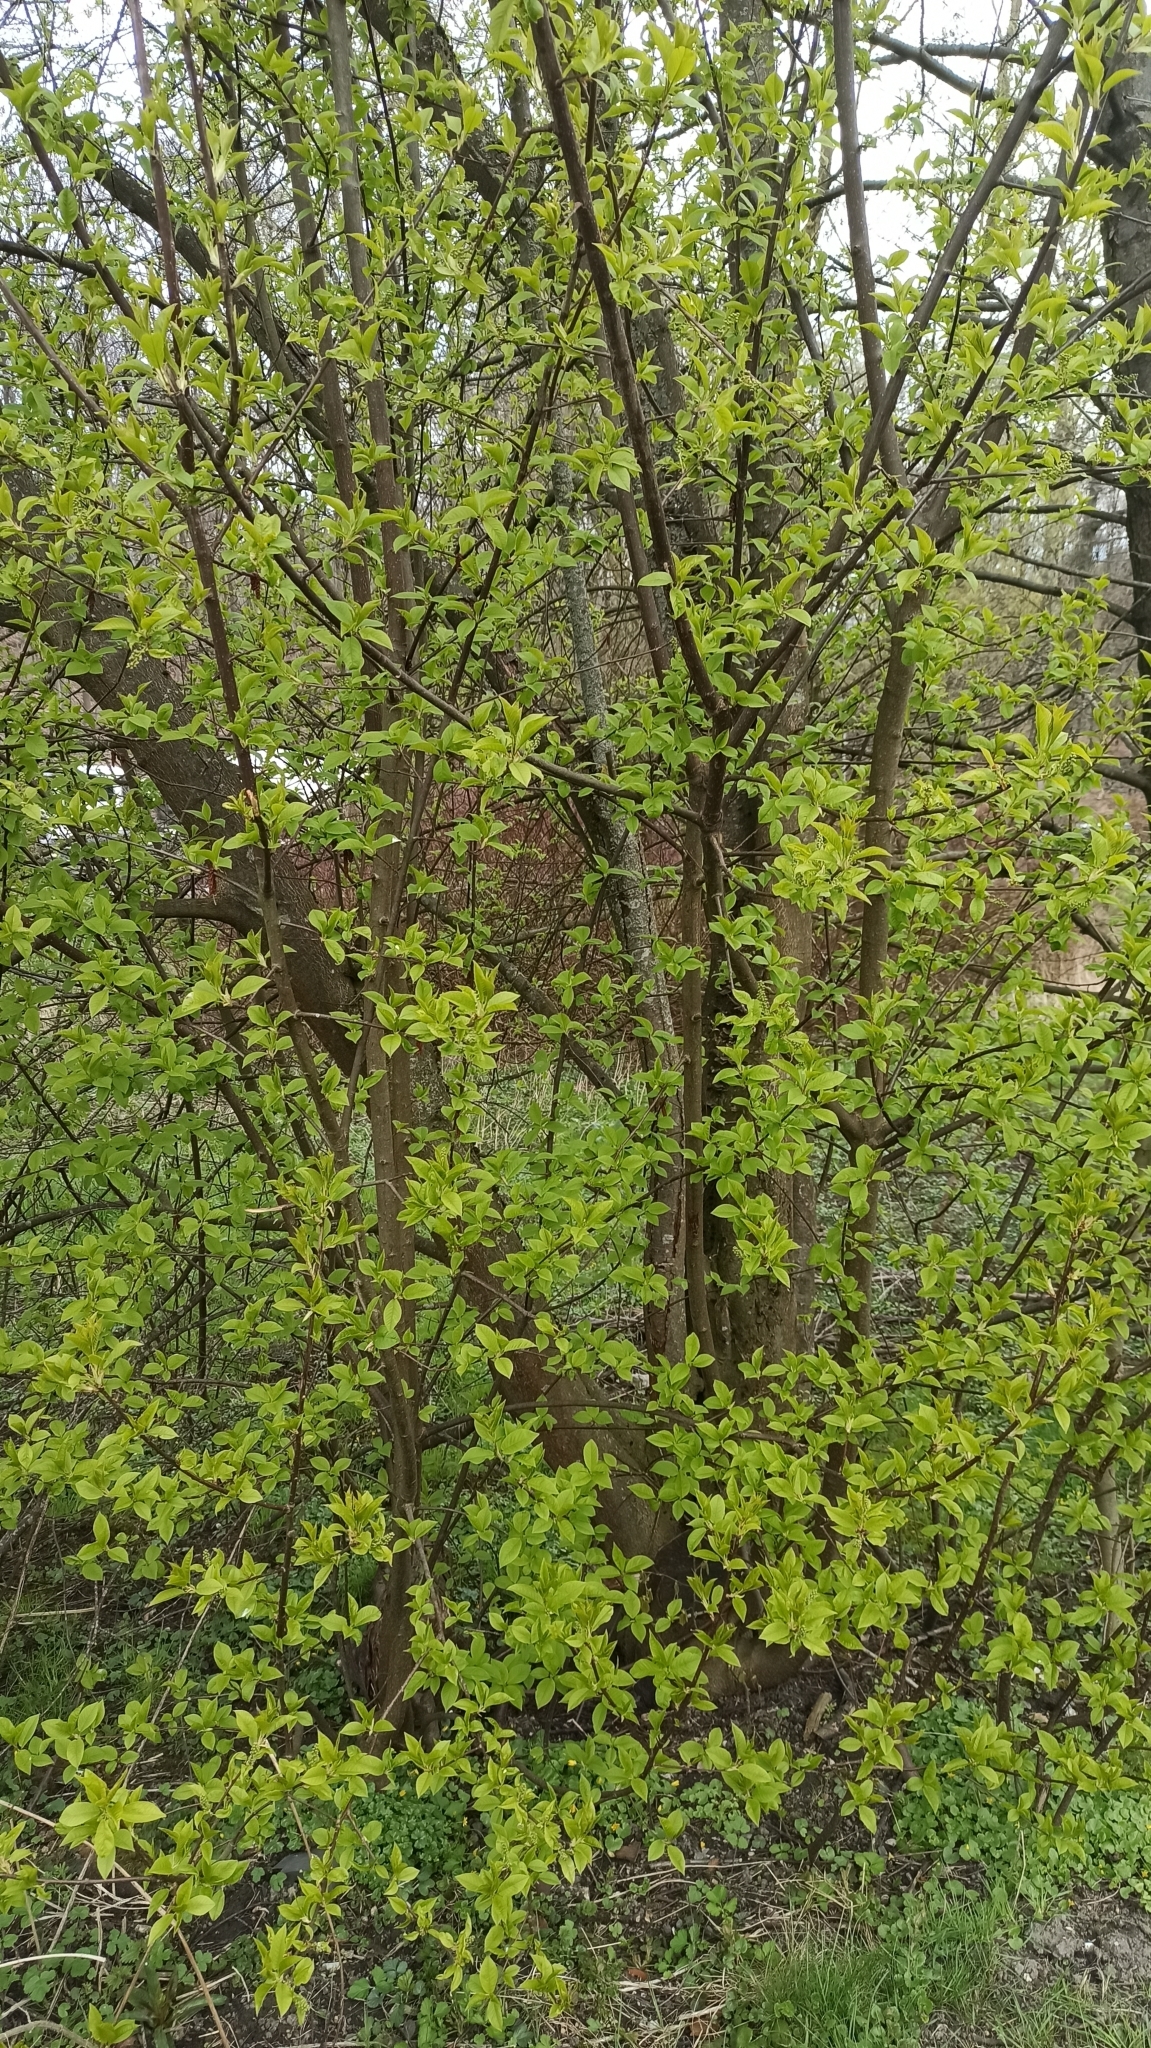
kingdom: Plantae
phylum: Tracheophyta
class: Magnoliopsida
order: Rosales
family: Rosaceae
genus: Prunus
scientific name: Prunus padus
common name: Bird cherry
